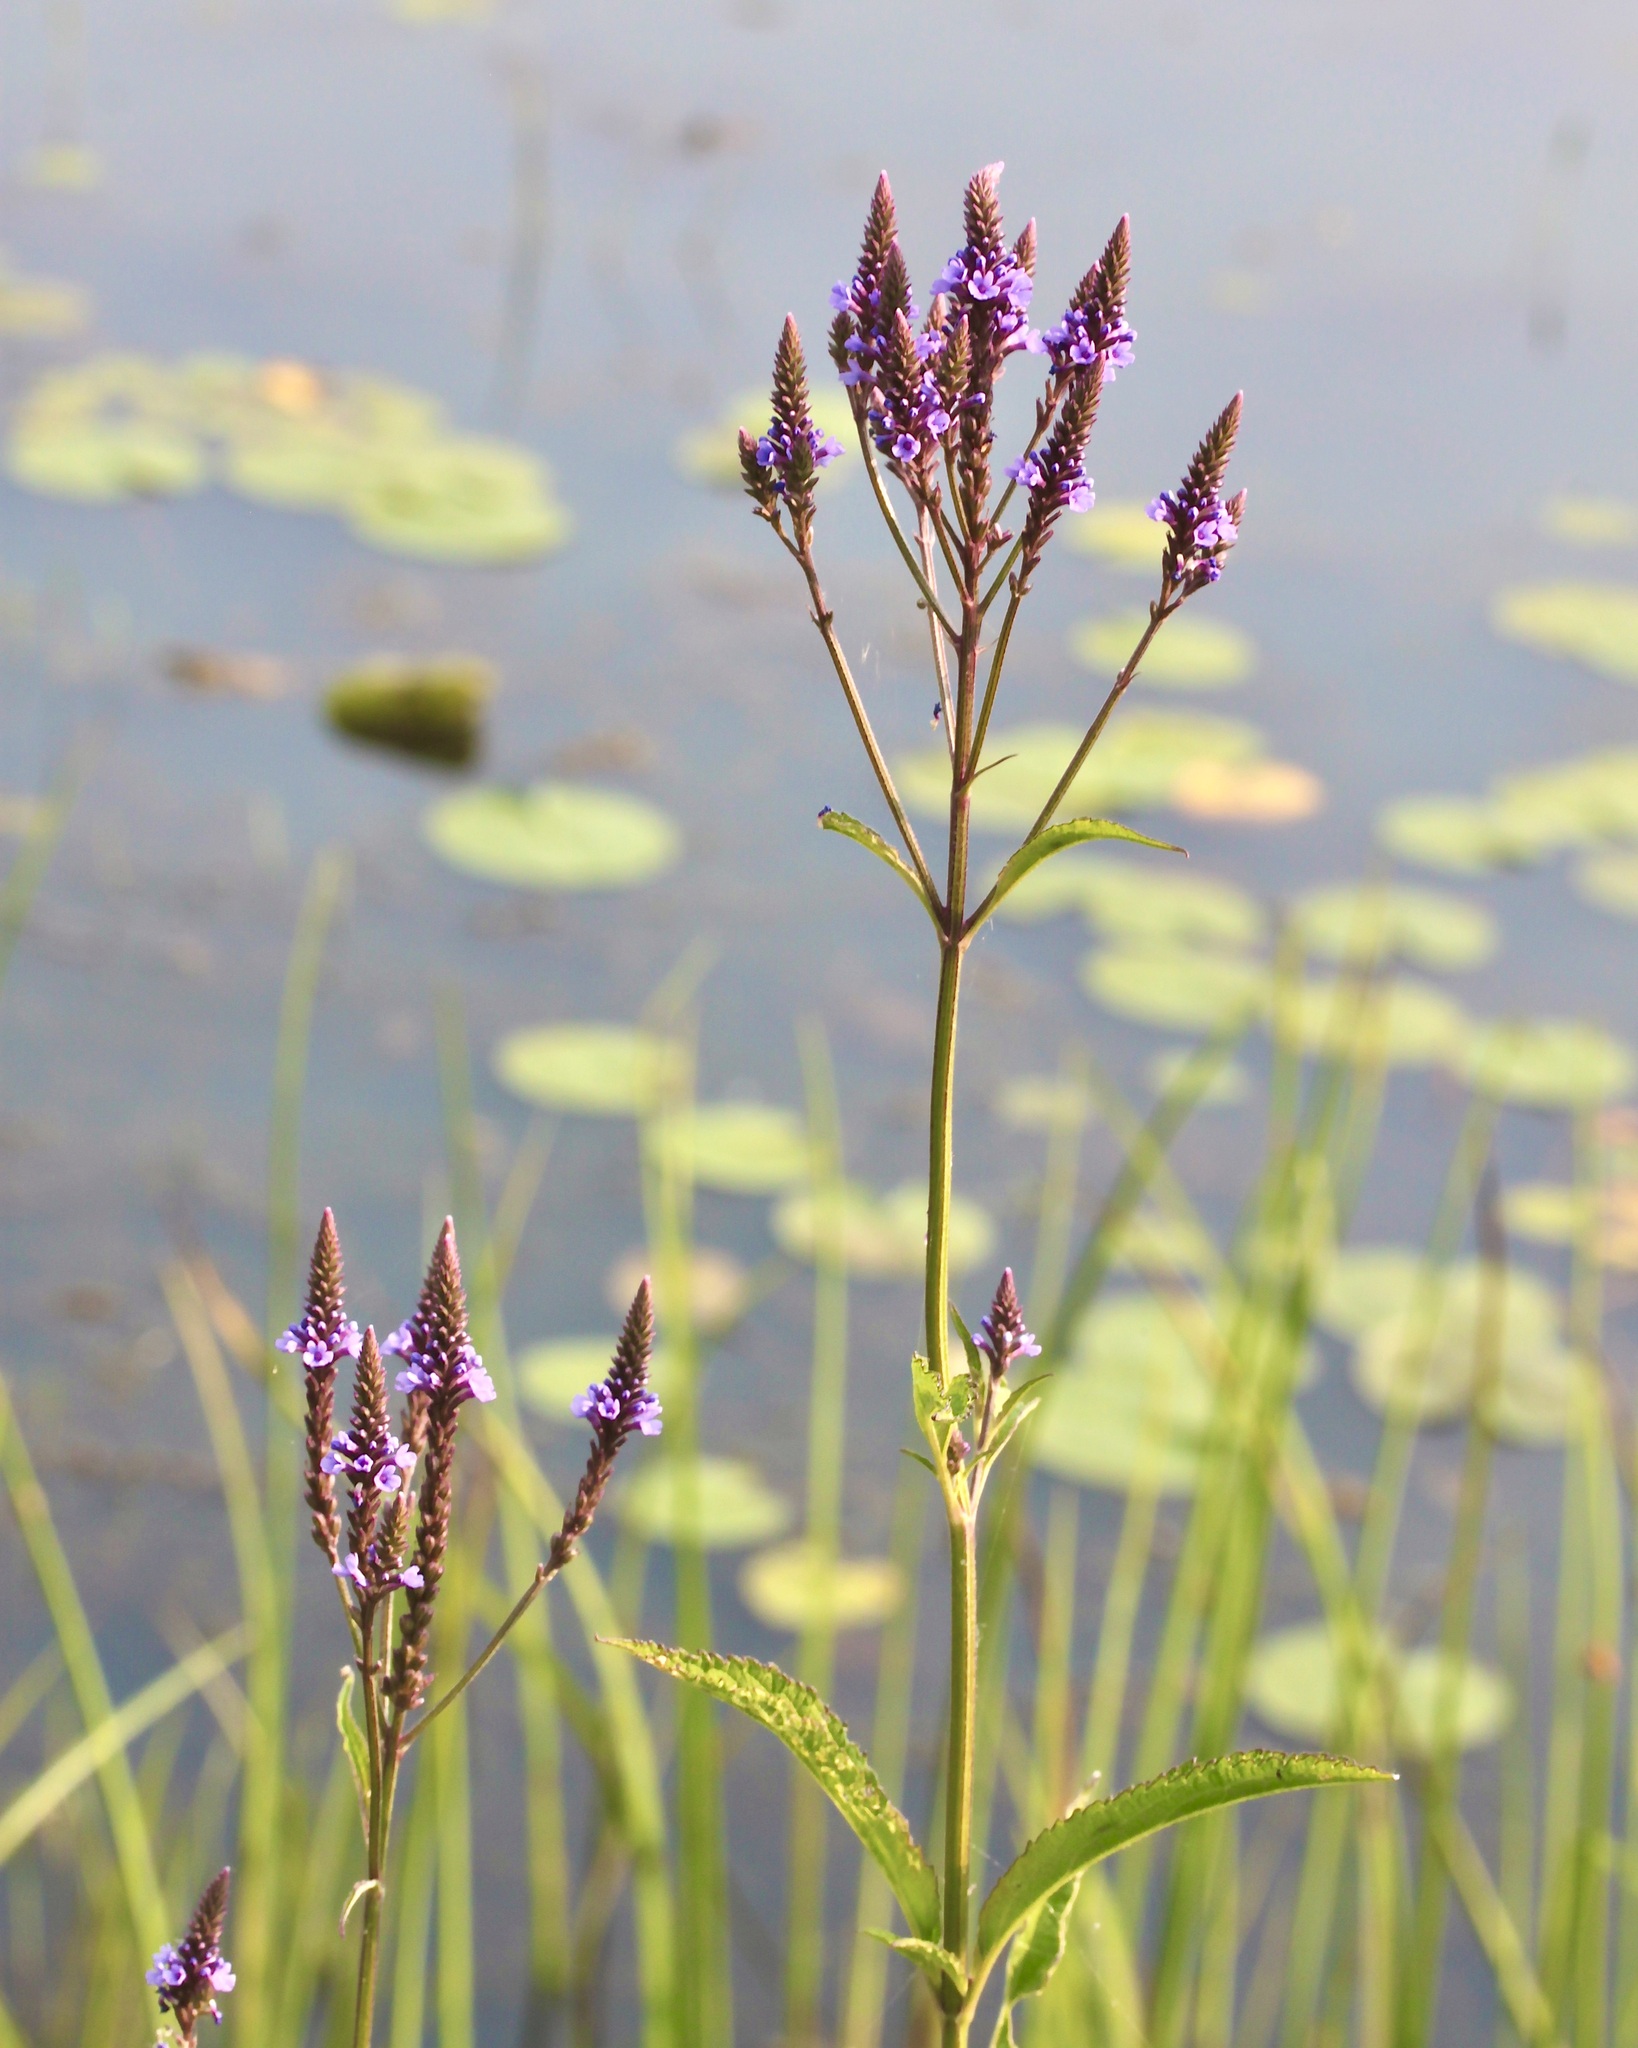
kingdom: Plantae
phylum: Tracheophyta
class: Magnoliopsida
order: Lamiales
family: Verbenaceae
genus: Verbena
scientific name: Verbena hastata
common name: American blue vervain
